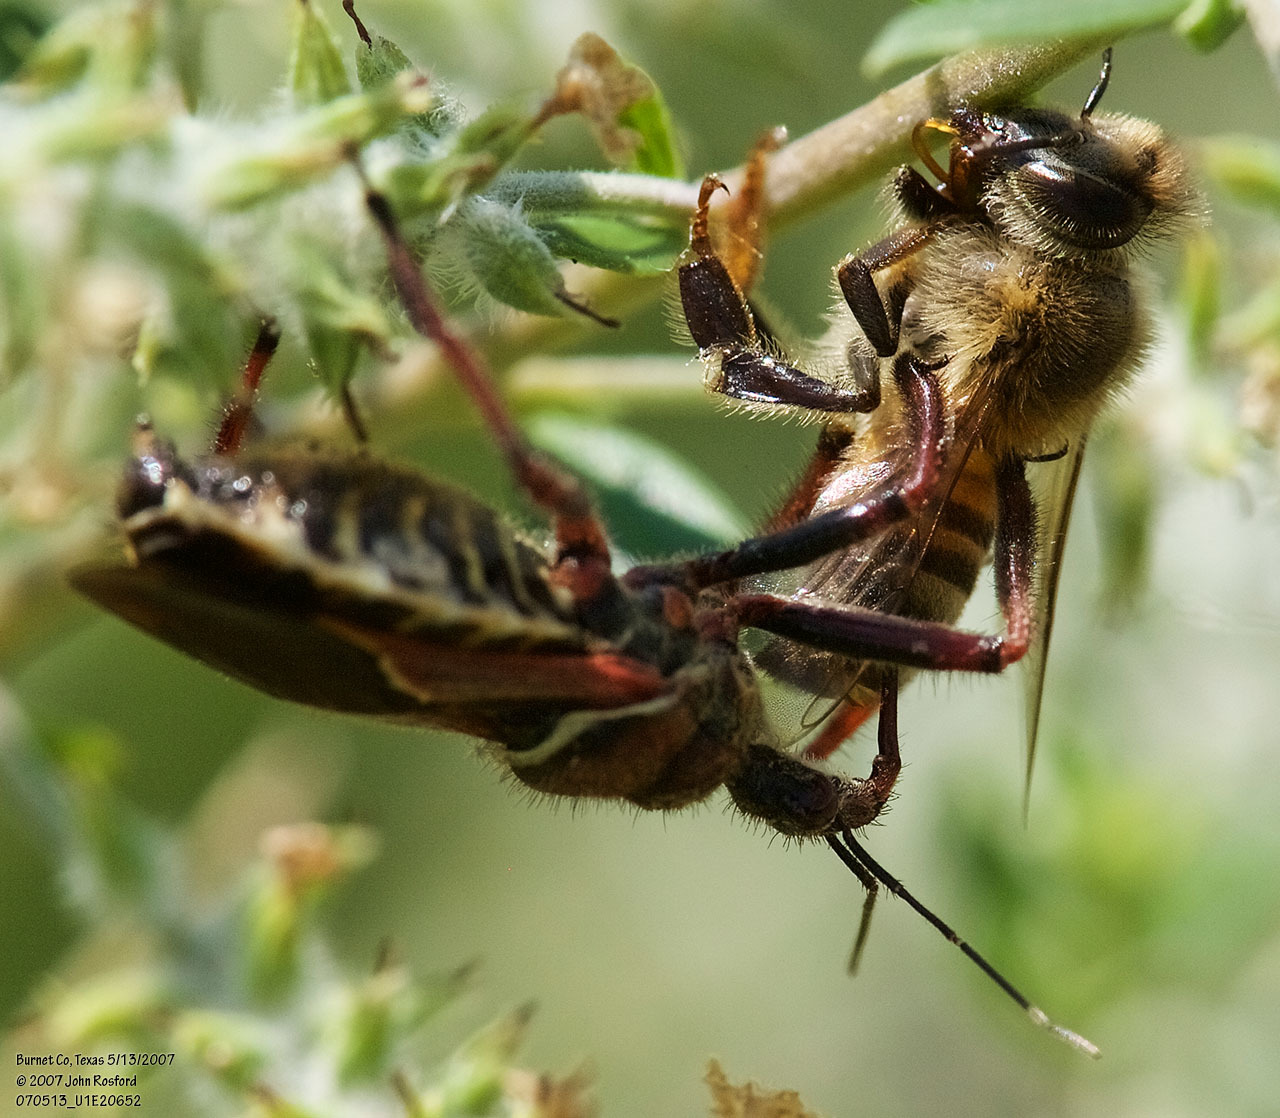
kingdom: Animalia
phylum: Arthropoda
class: Insecta
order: Hemiptera
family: Reduviidae
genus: Apiomerus
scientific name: Apiomerus spissipes
